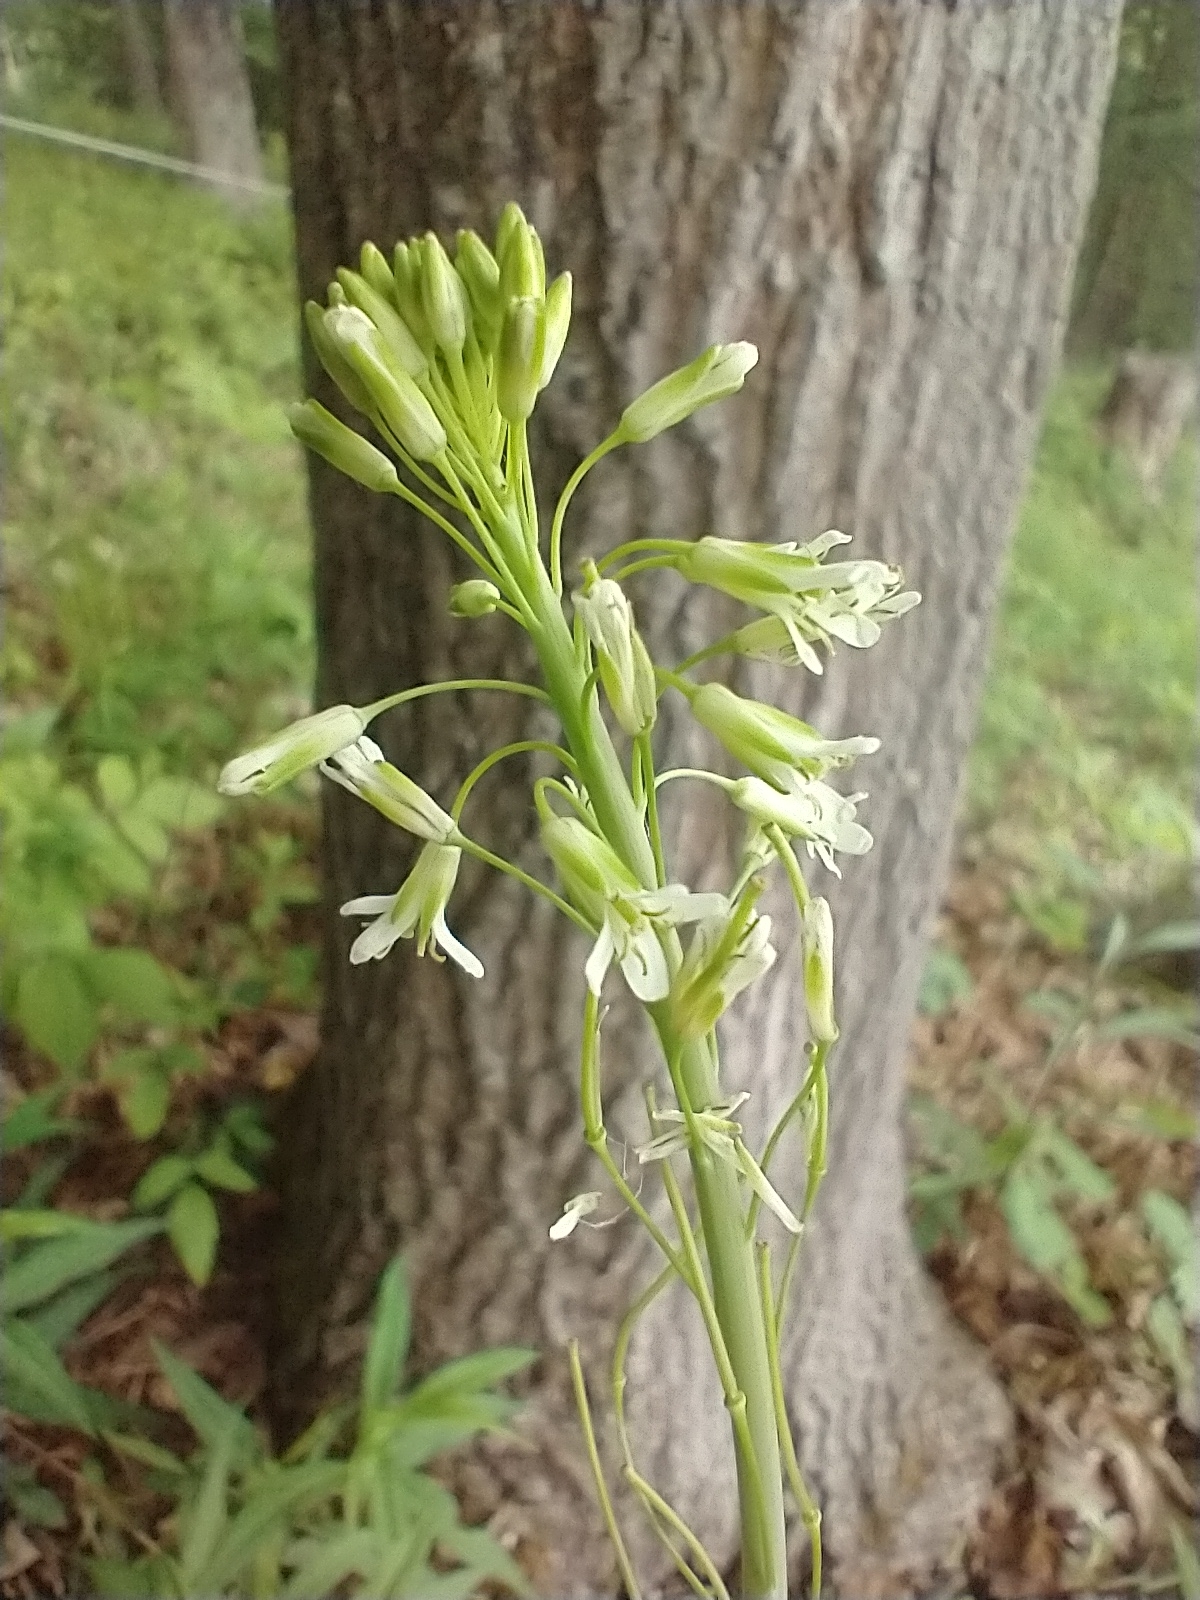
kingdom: Plantae
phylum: Tracheophyta
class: Magnoliopsida
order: Brassicales
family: Brassicaceae
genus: Turritis
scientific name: Turritis glabra
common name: Tower rockcress
